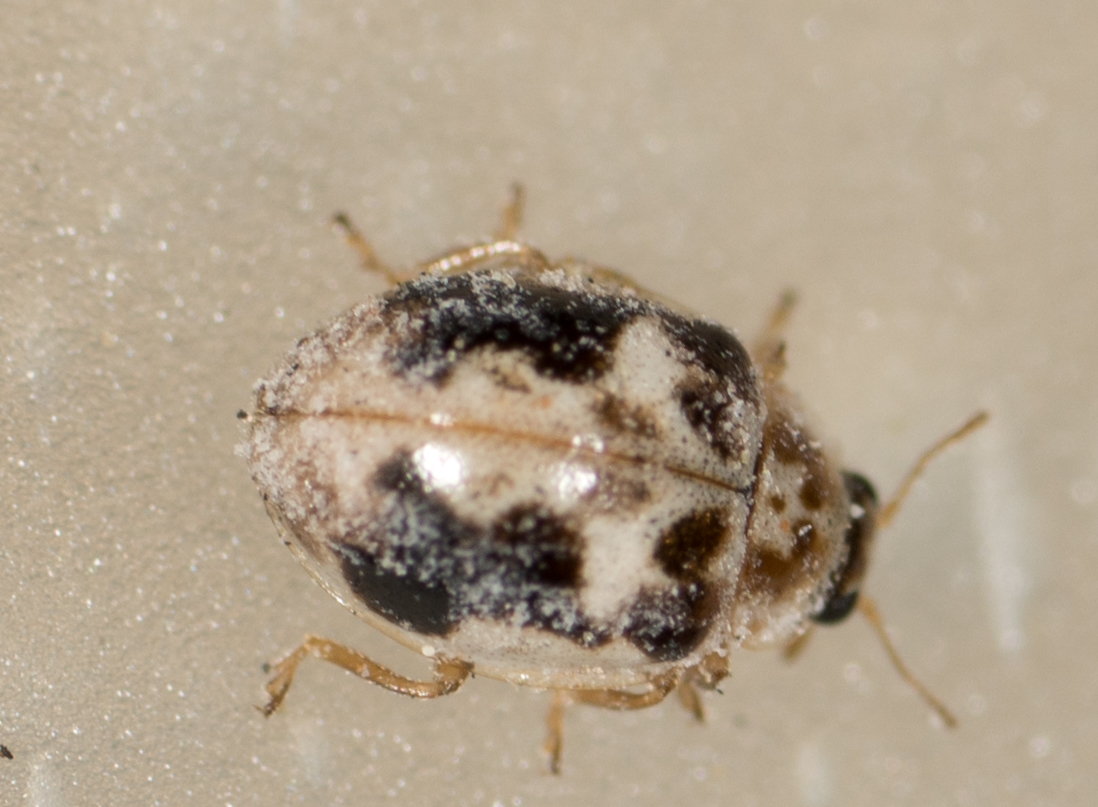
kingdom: Animalia
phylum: Arthropoda
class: Insecta
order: Coleoptera
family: Coccinellidae
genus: Psyllobora
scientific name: Psyllobora renifer
